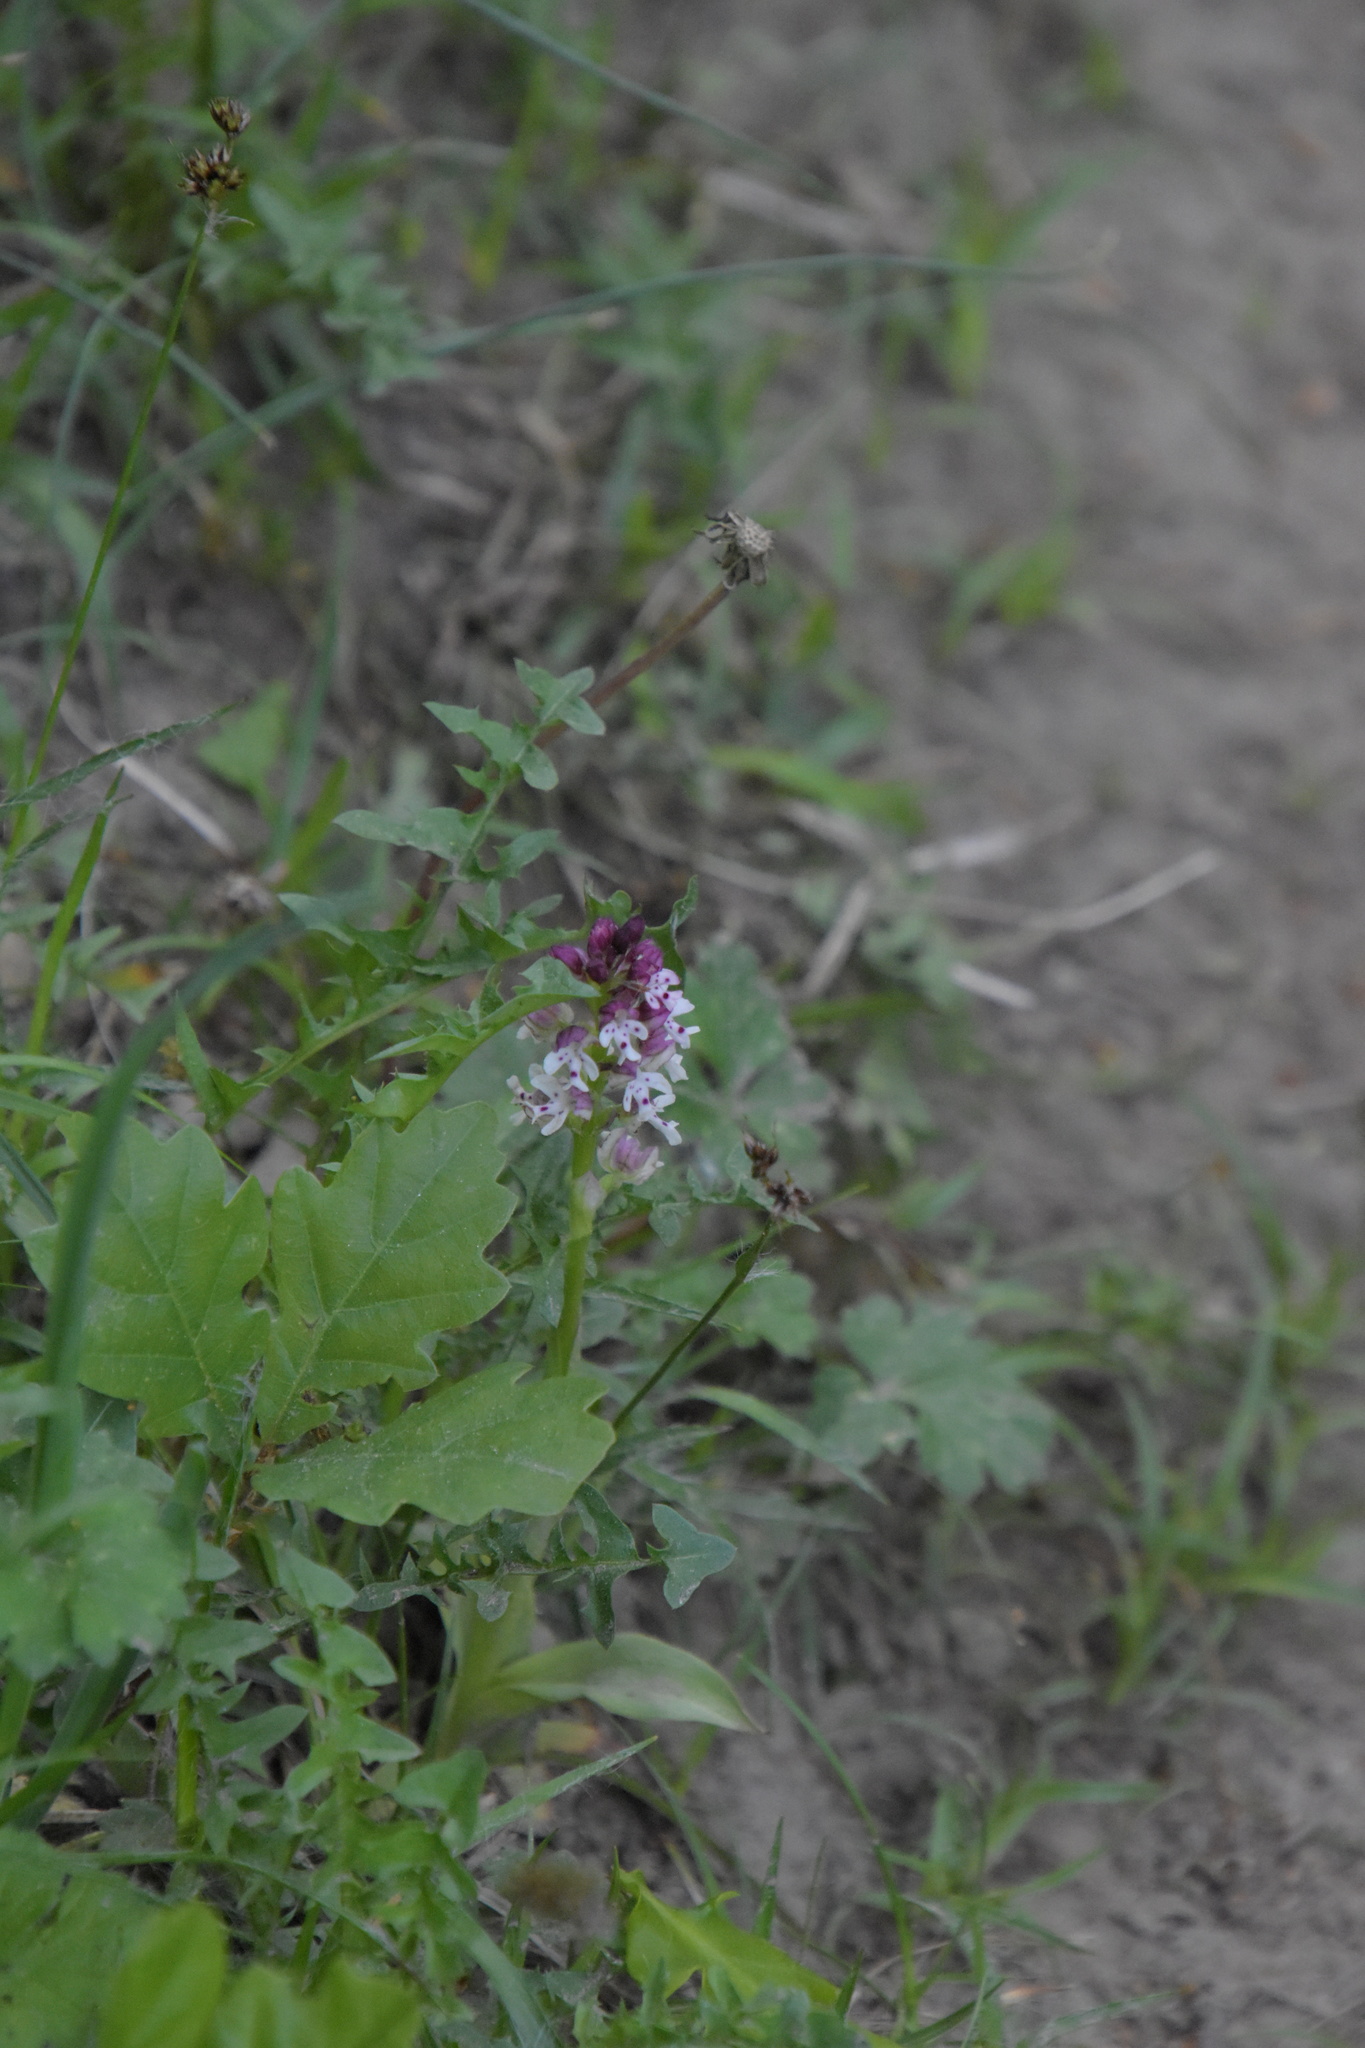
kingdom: Plantae
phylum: Tracheophyta
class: Liliopsida
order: Asparagales
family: Orchidaceae
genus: Neotinea
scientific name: Neotinea ustulata
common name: Burnt orchid
